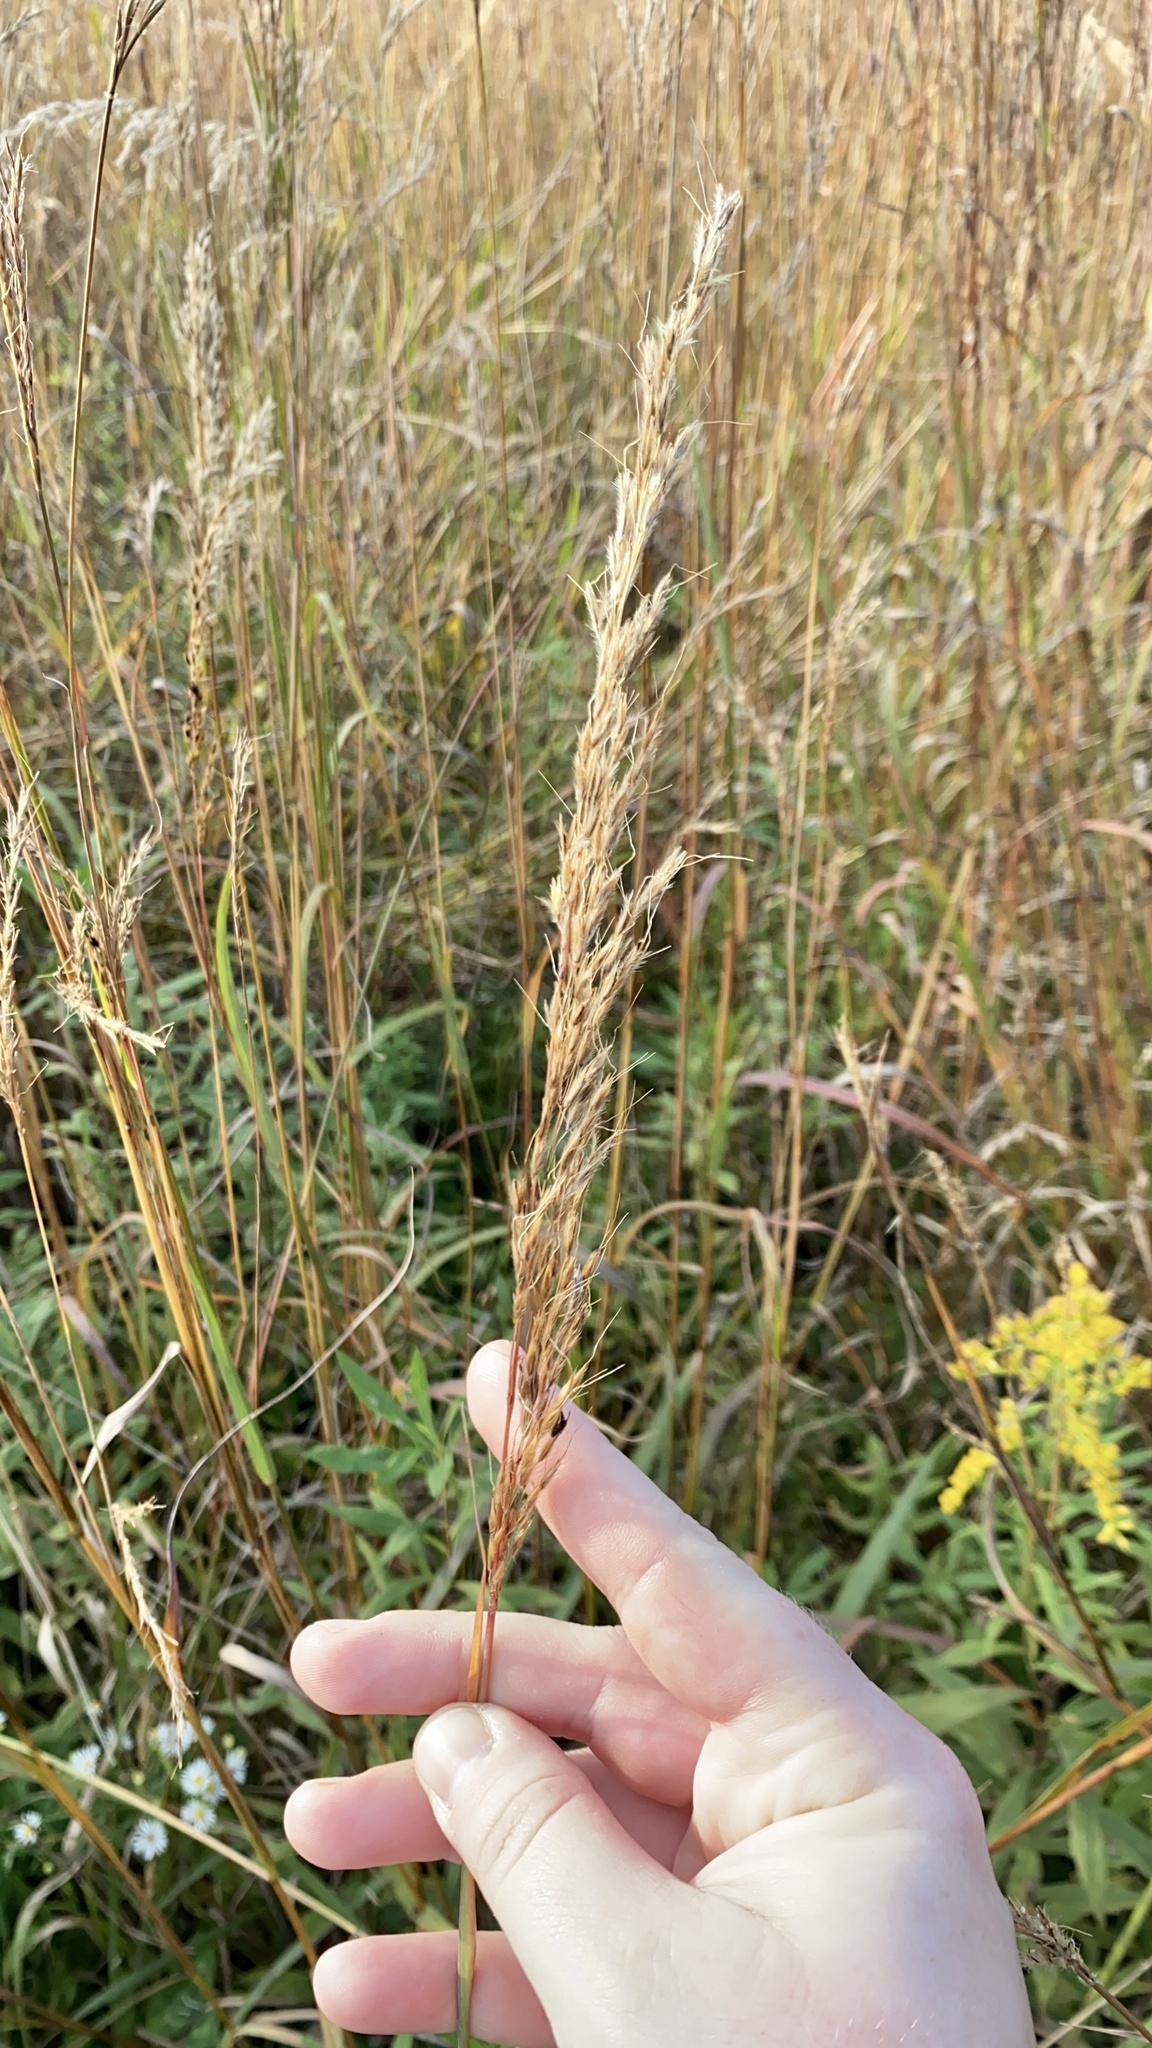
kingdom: Plantae
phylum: Tracheophyta
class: Liliopsida
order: Poales
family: Poaceae
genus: Sorghastrum
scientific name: Sorghastrum nutans
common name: Indian grass
